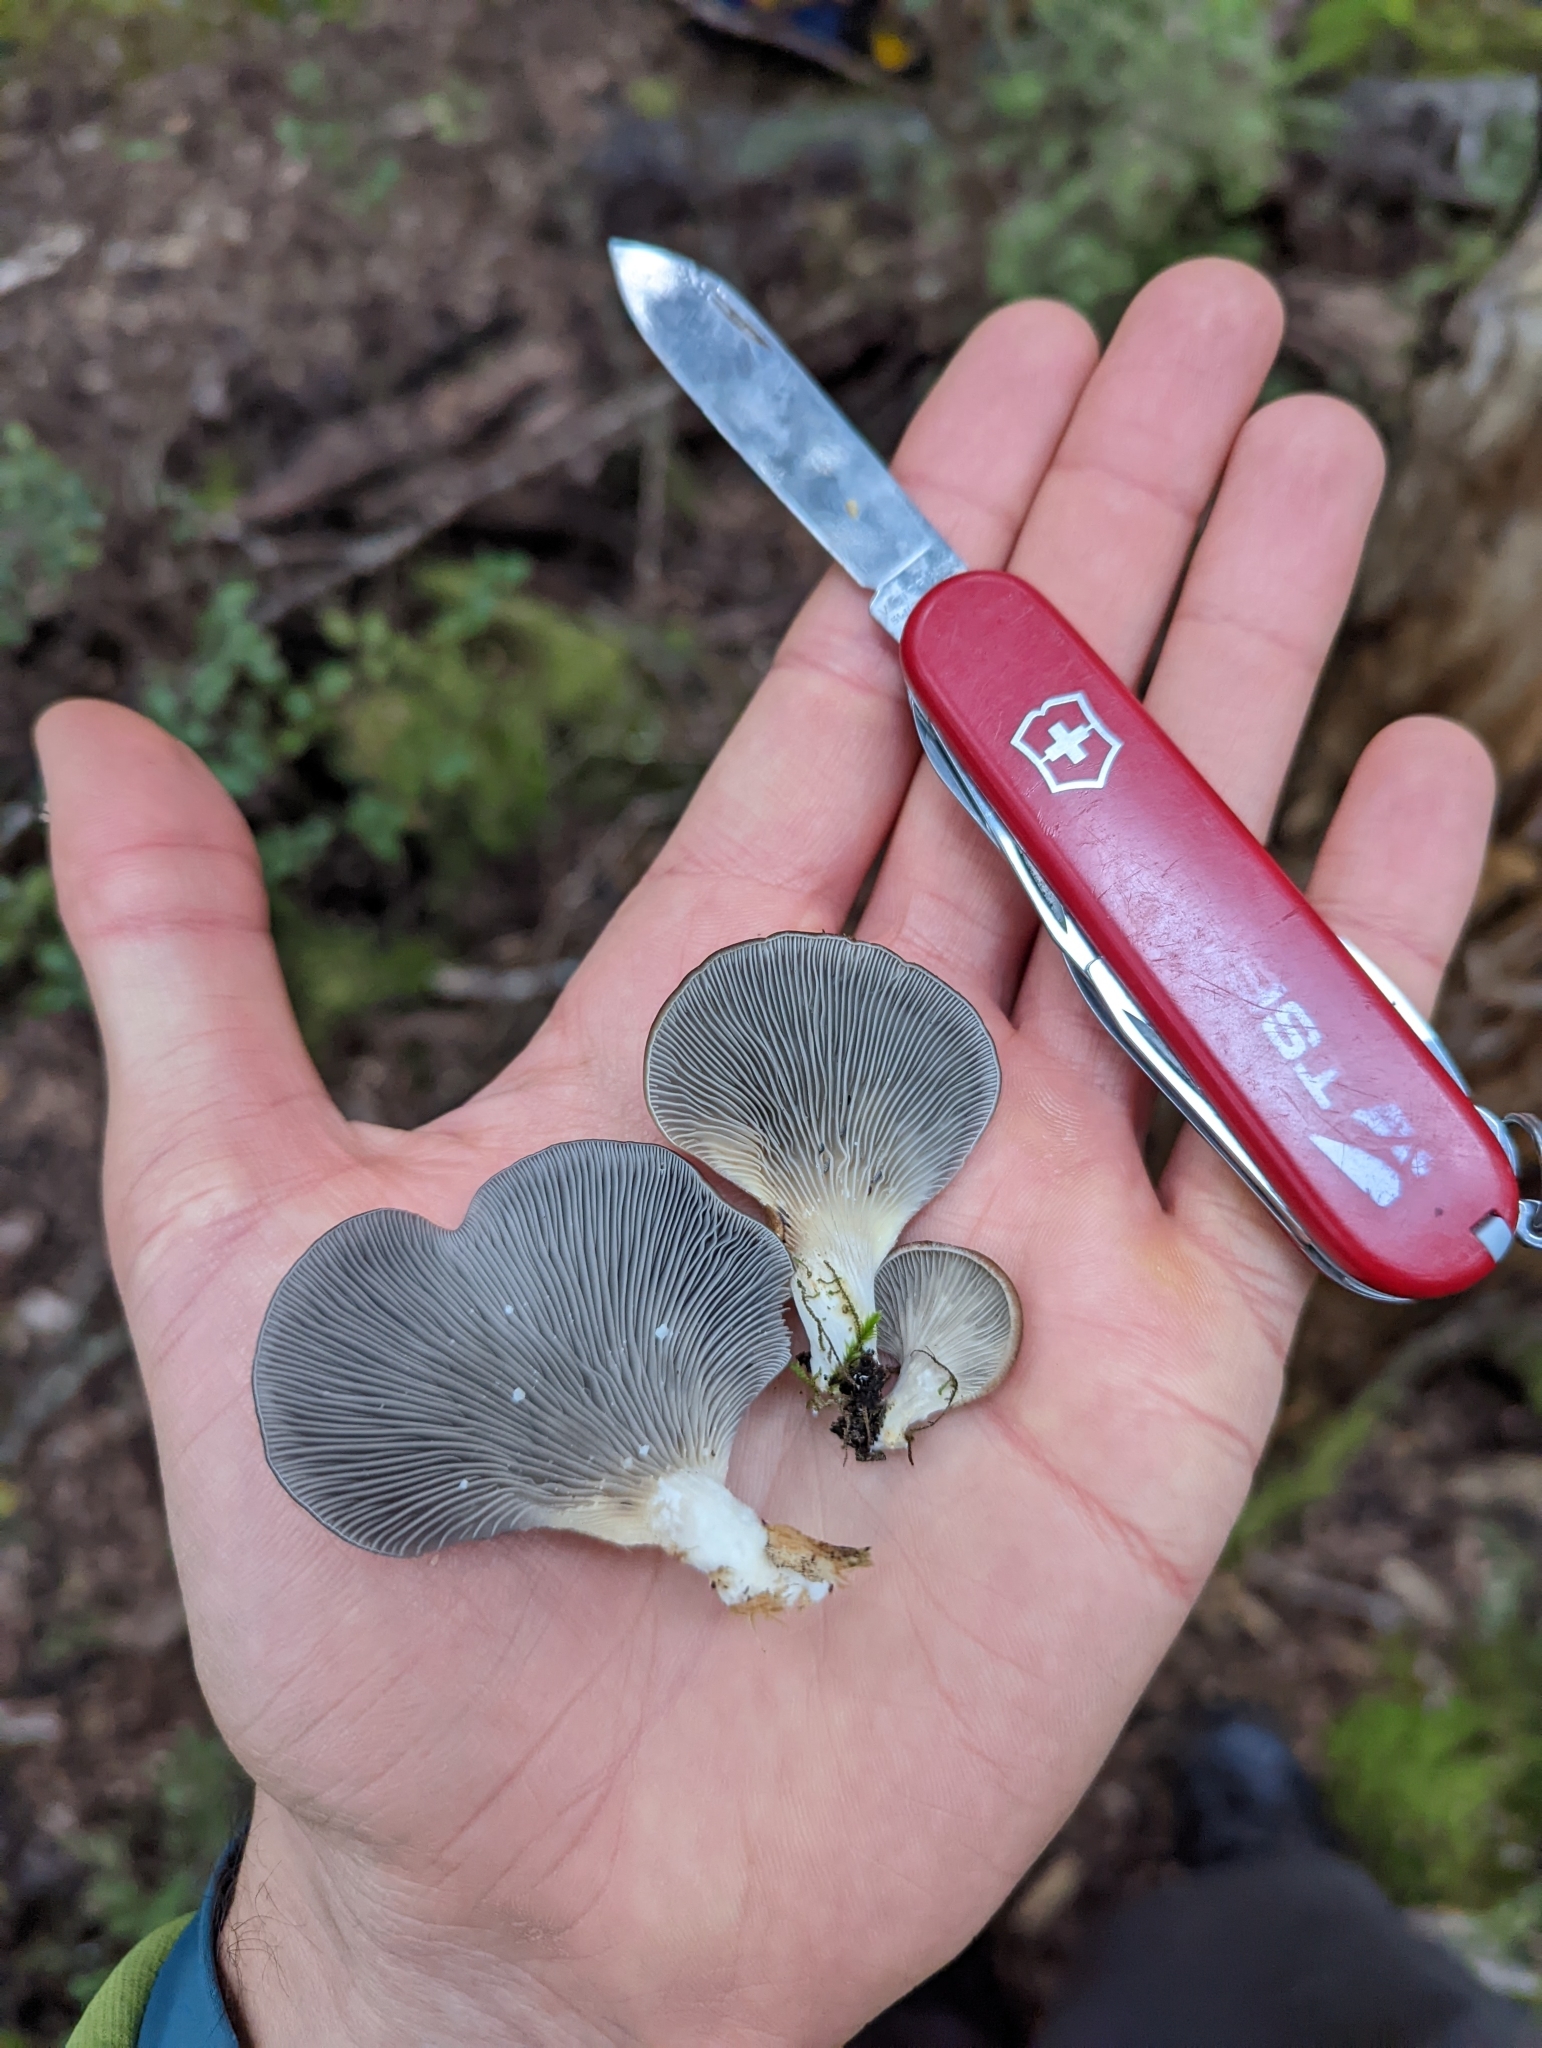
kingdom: Fungi
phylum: Basidiomycota
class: Agaricomycetes
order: Agaricales
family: Pleurotaceae
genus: Pleurotus
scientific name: Pleurotus purpureo-olivaceus
